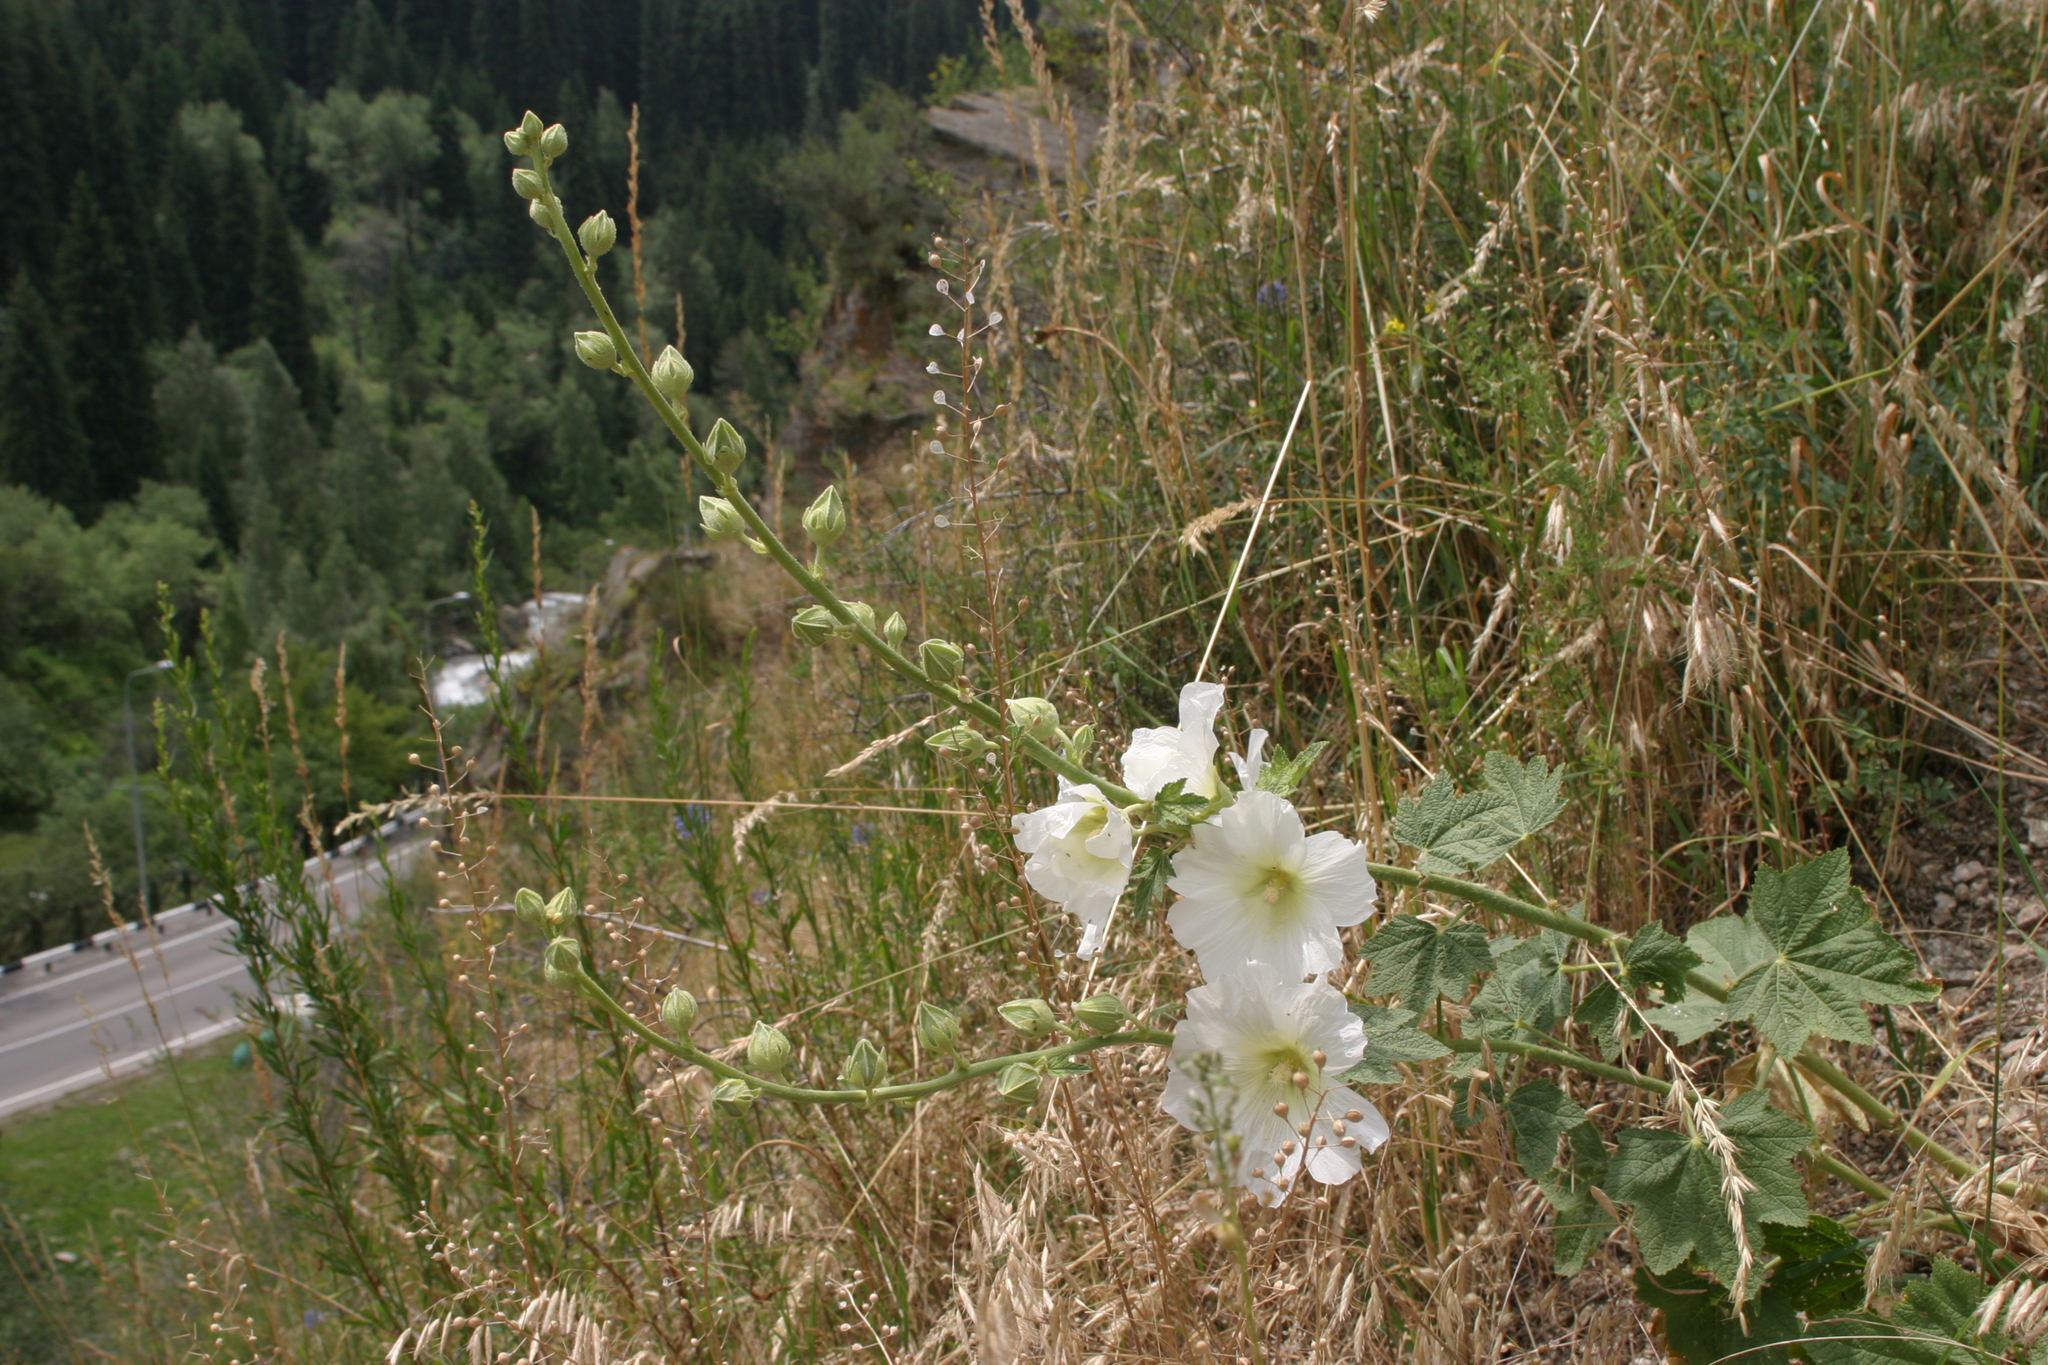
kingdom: Plantae
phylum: Tracheophyta
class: Magnoliopsida
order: Malvales
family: Malvaceae
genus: Alcea
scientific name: Alcea nudiflora
